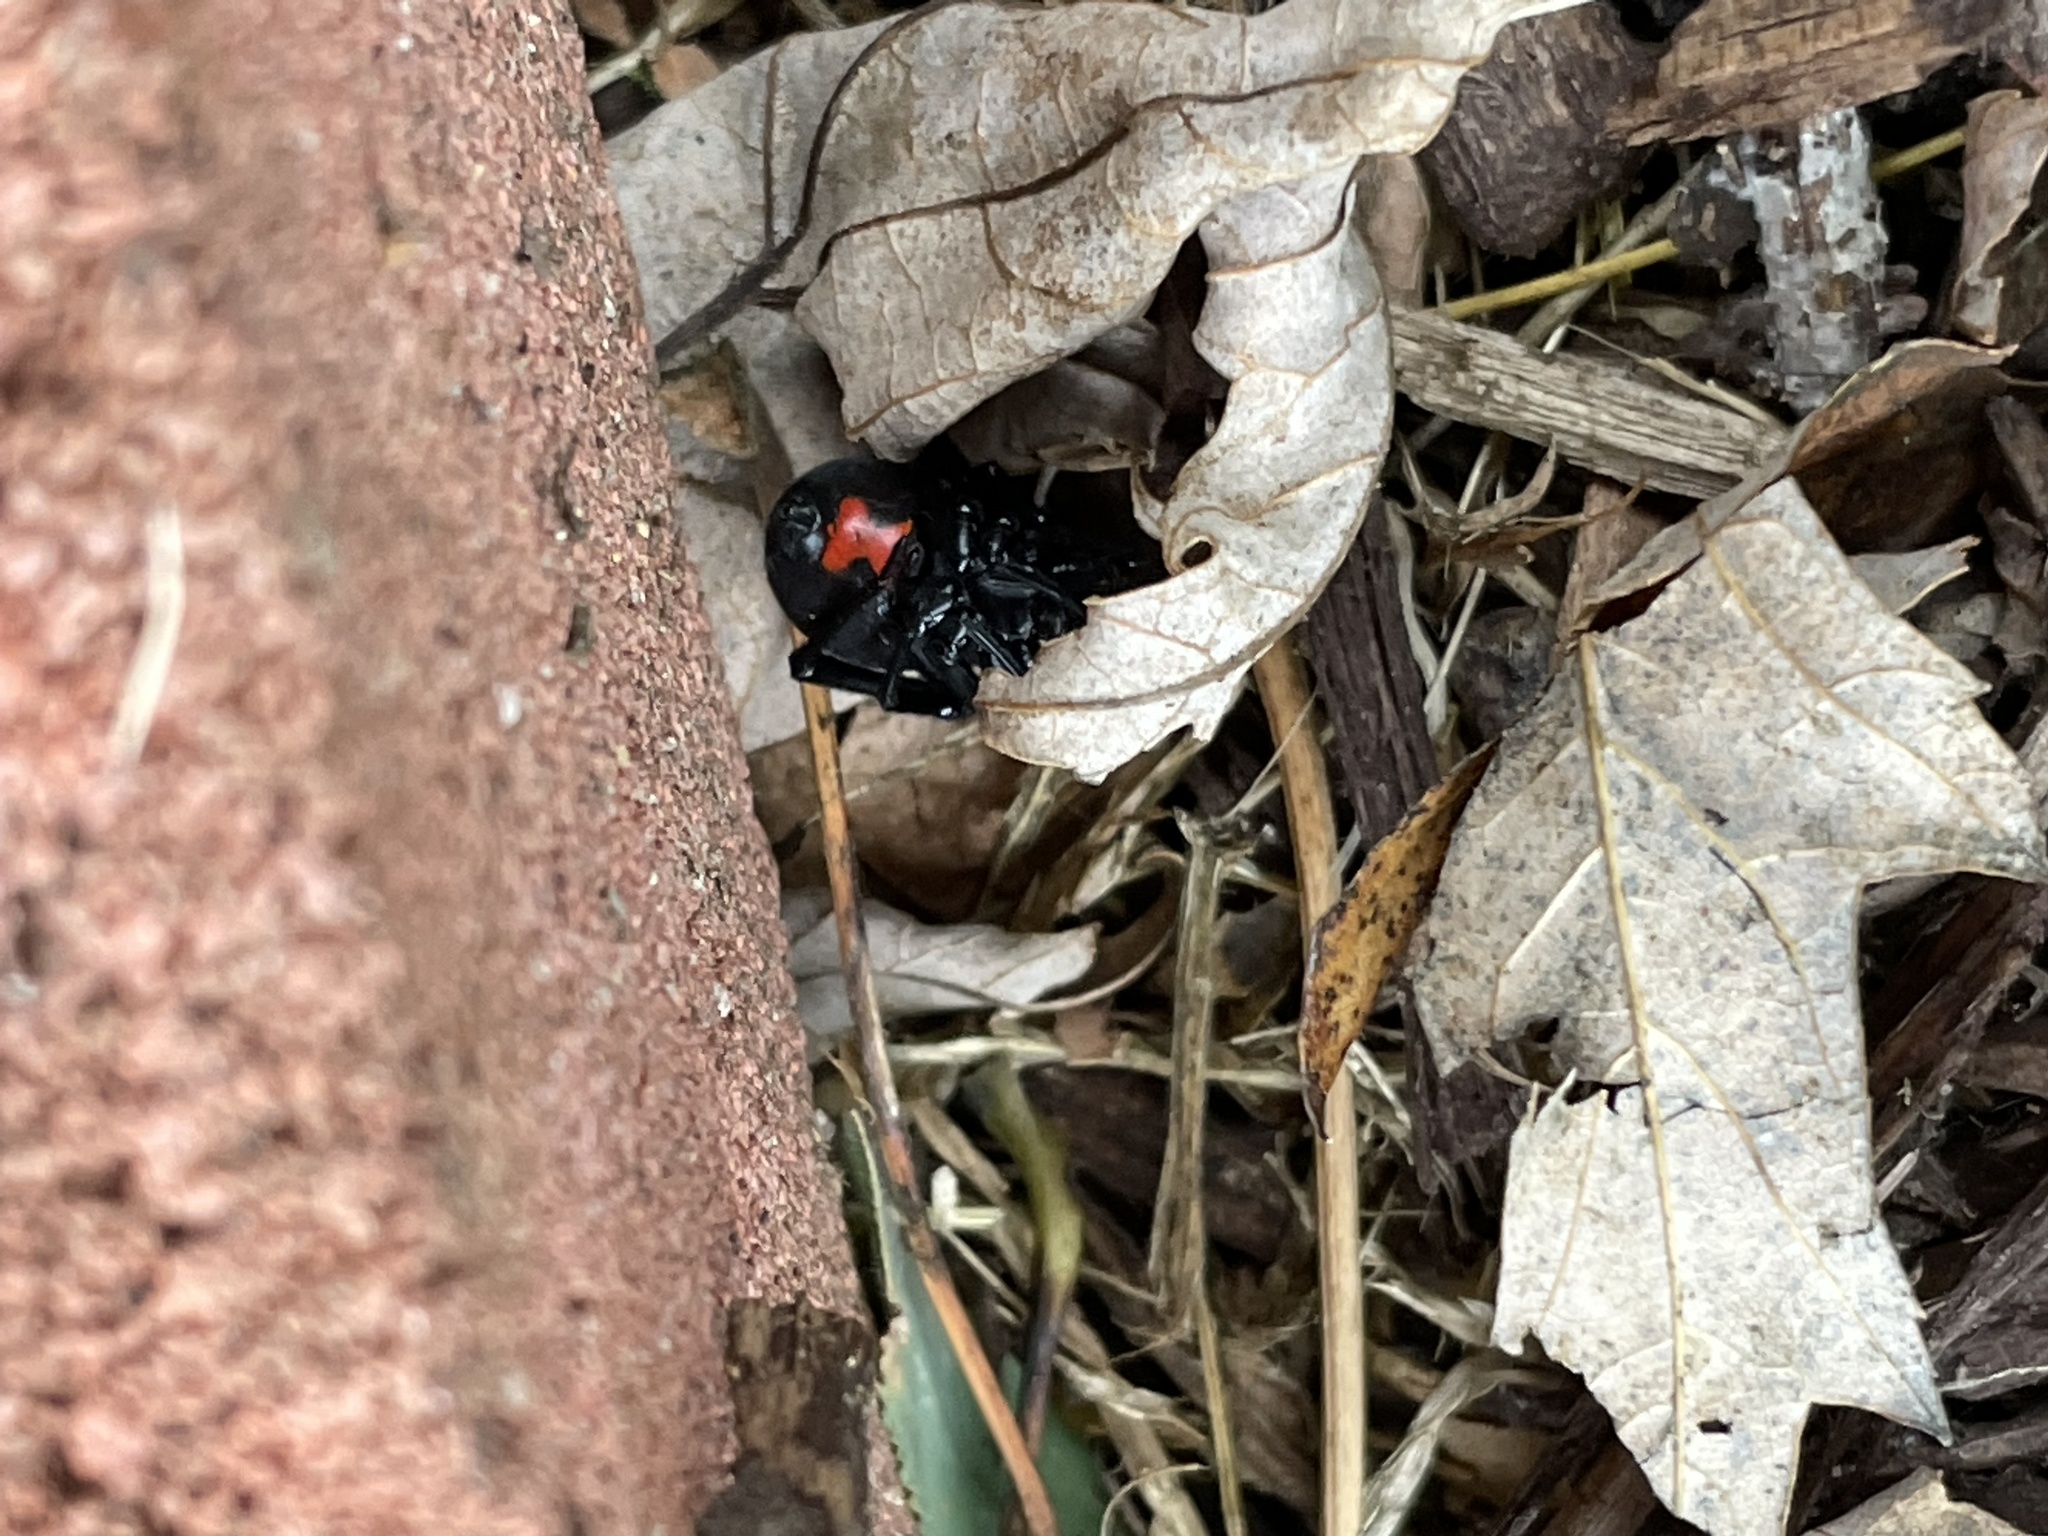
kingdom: Animalia
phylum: Arthropoda
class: Arachnida
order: Araneae
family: Theridiidae
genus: Latrodectus
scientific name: Latrodectus mactans
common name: Cobweb spiders
